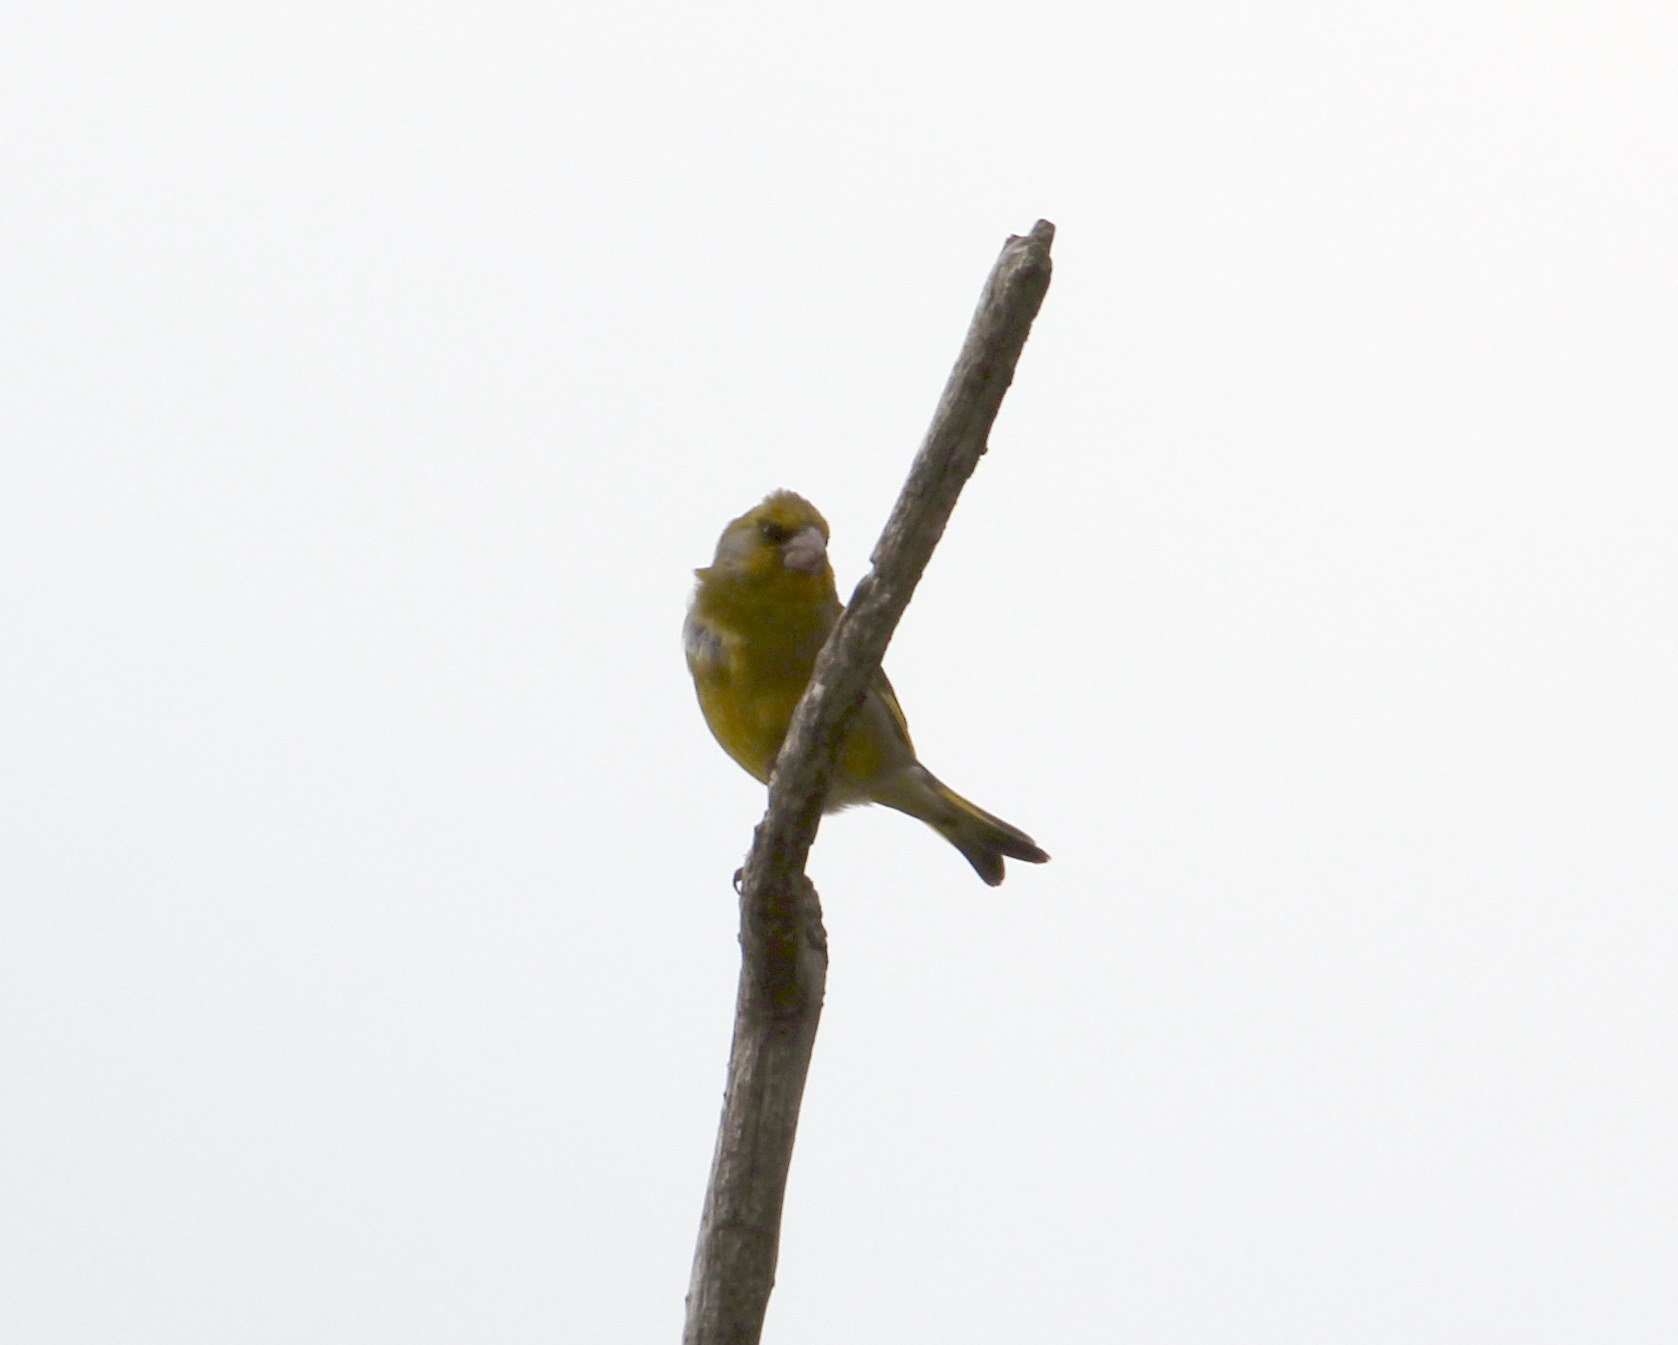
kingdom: Plantae
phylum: Tracheophyta
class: Liliopsida
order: Poales
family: Poaceae
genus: Chloris
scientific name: Chloris chloris
